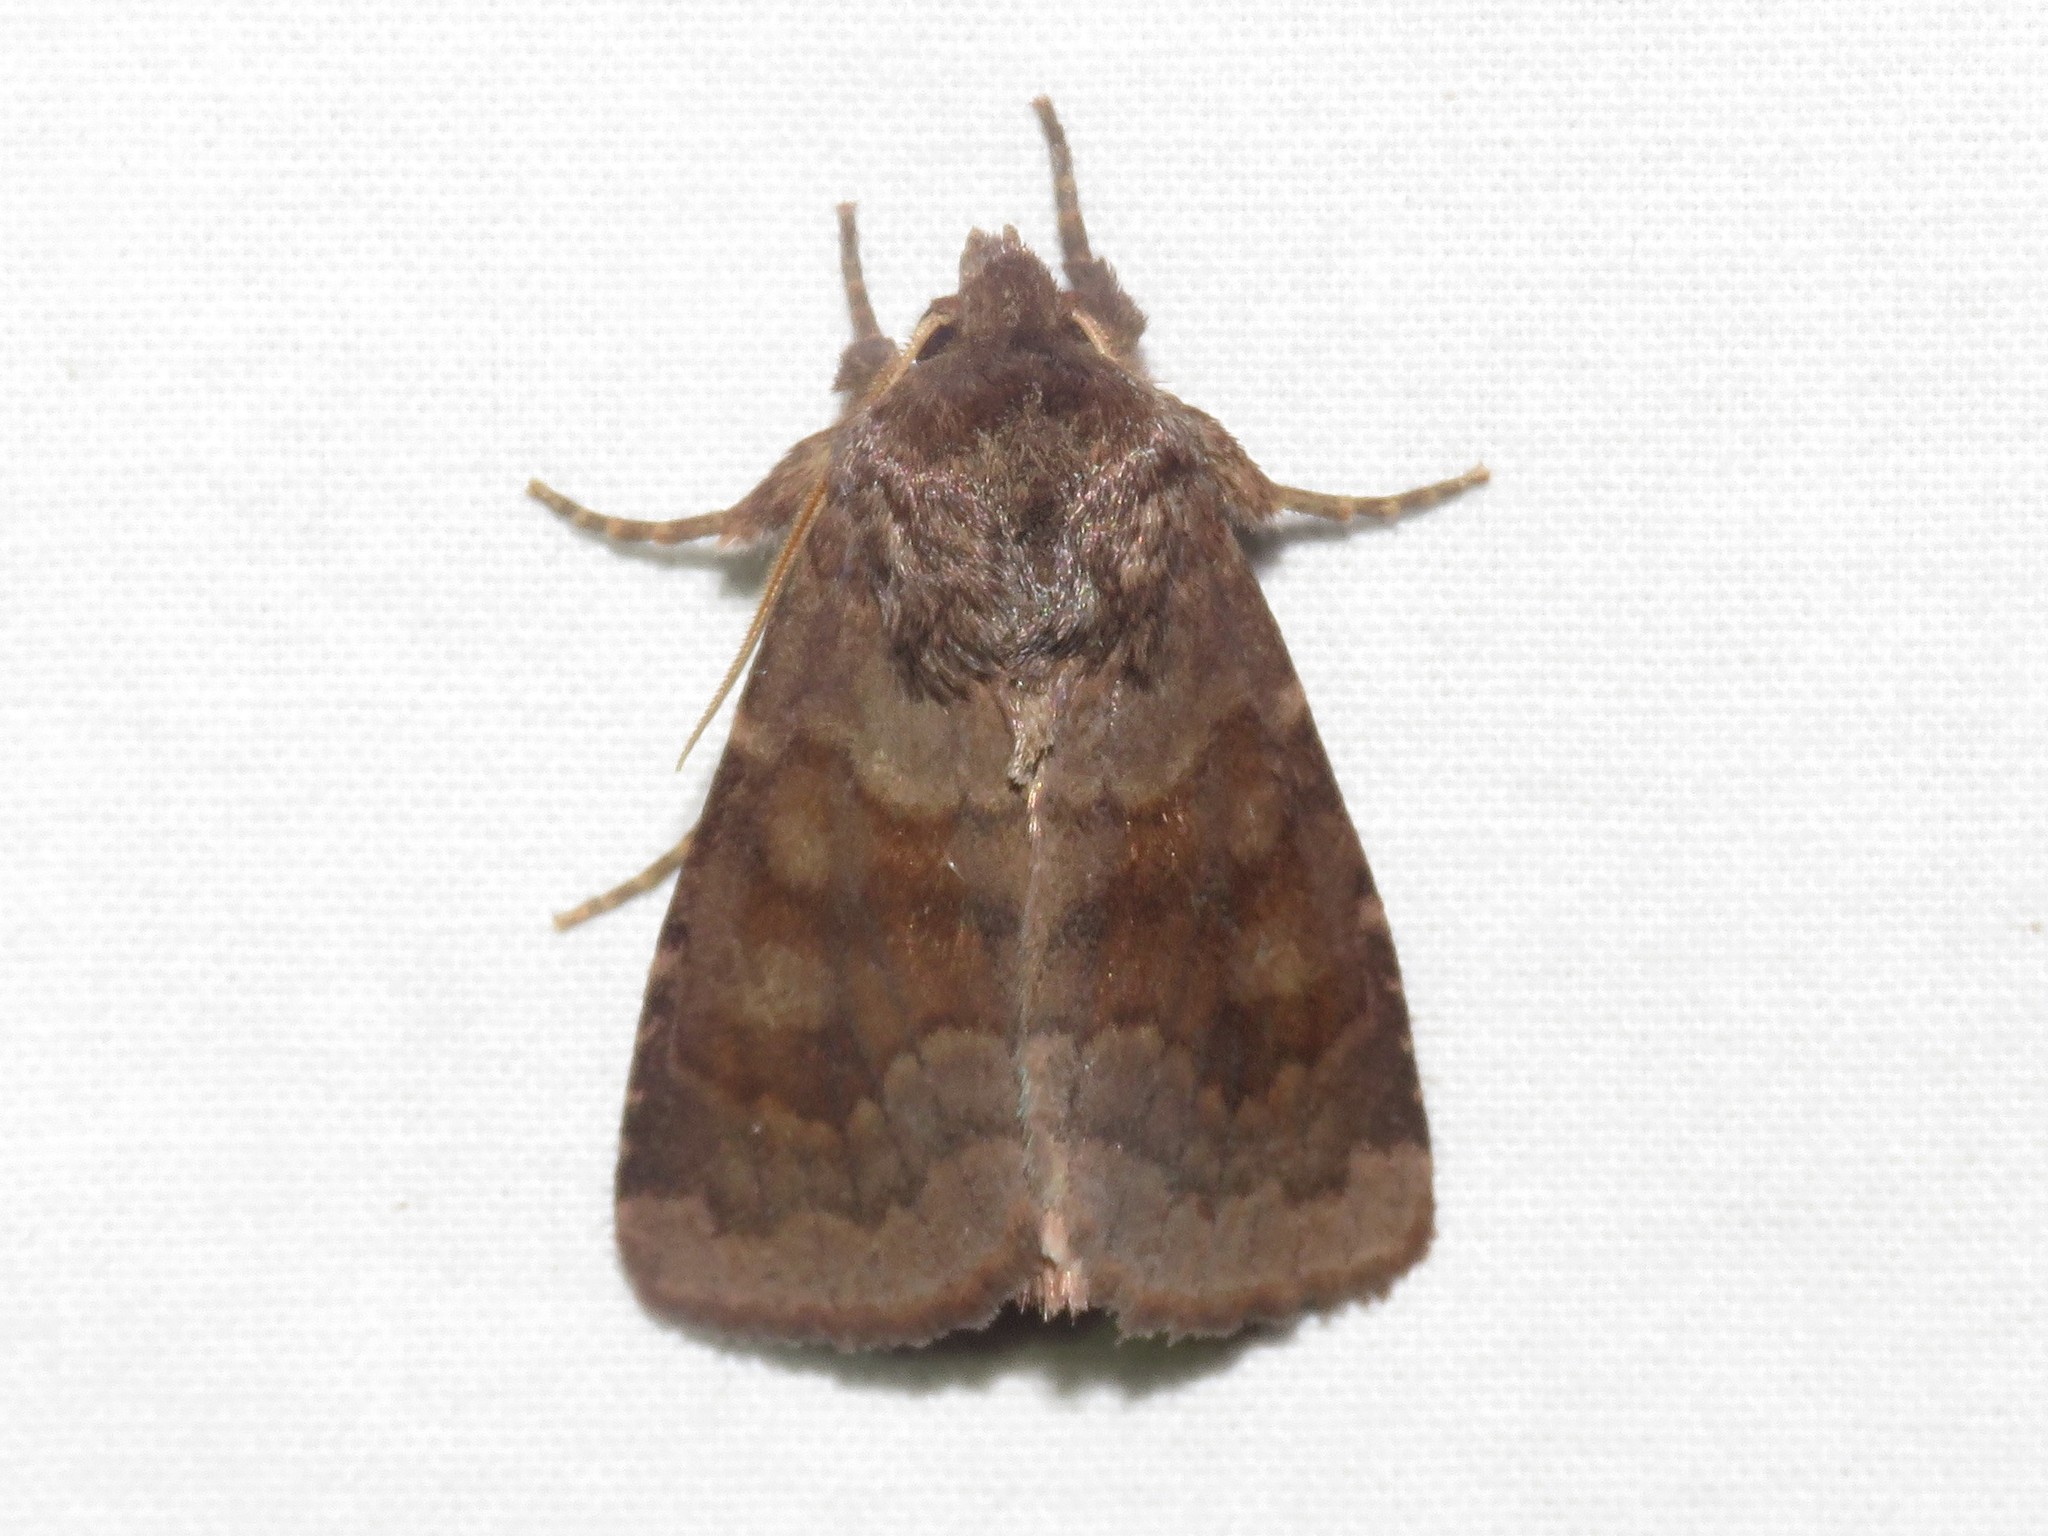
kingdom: Animalia
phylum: Arthropoda
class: Insecta
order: Lepidoptera
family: Noctuidae
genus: Nephelodes
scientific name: Nephelodes minians
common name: Bronzed cutworm
